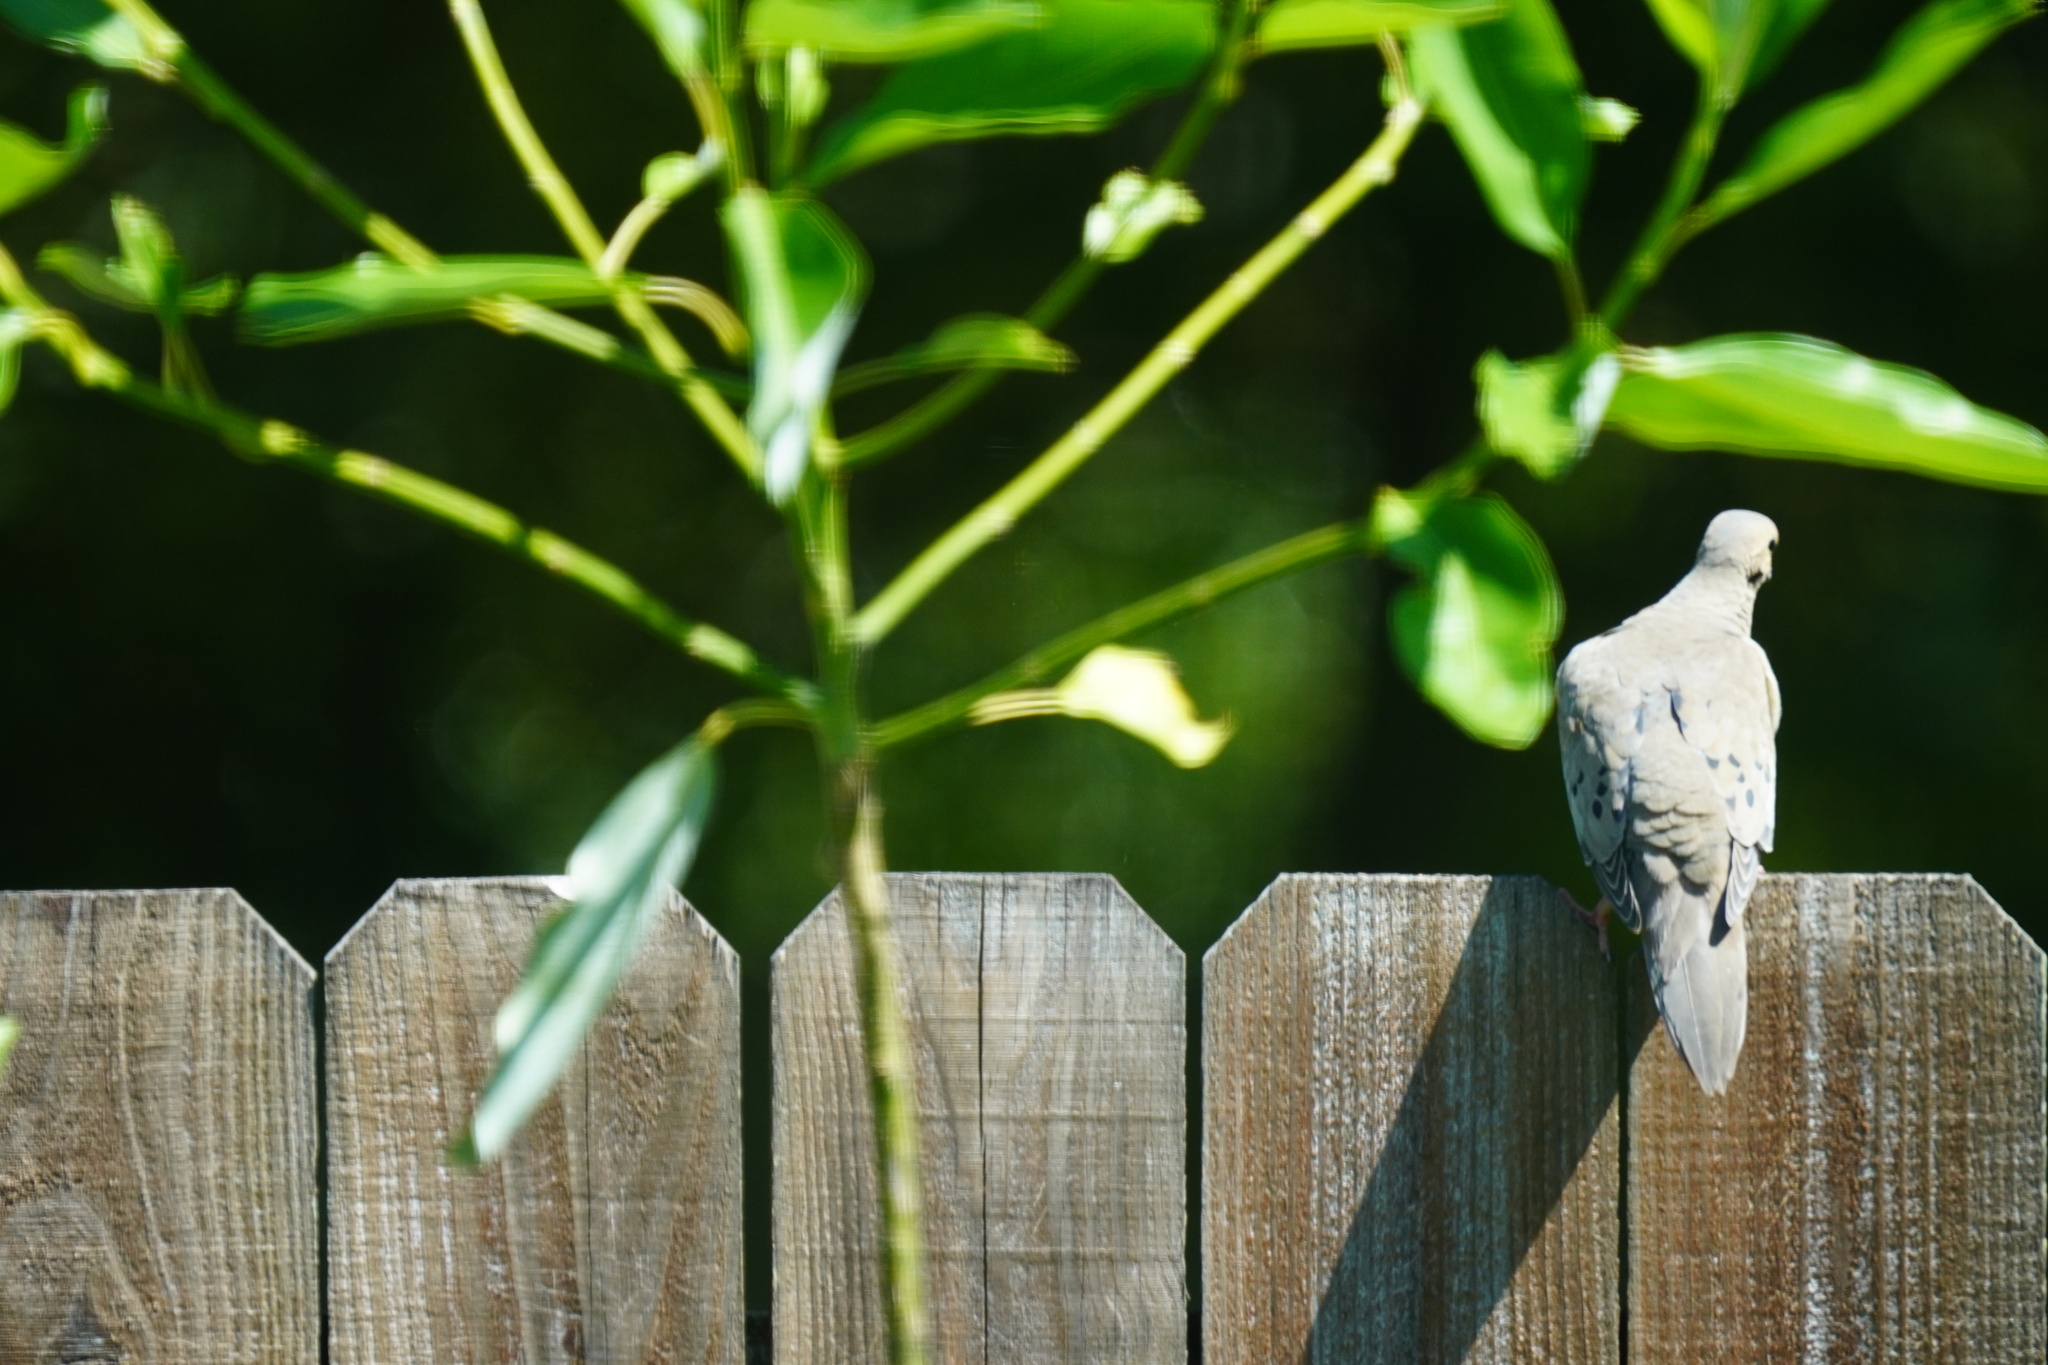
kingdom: Animalia
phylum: Chordata
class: Aves
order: Columbiformes
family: Columbidae
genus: Zenaida
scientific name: Zenaida macroura
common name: Mourning dove
